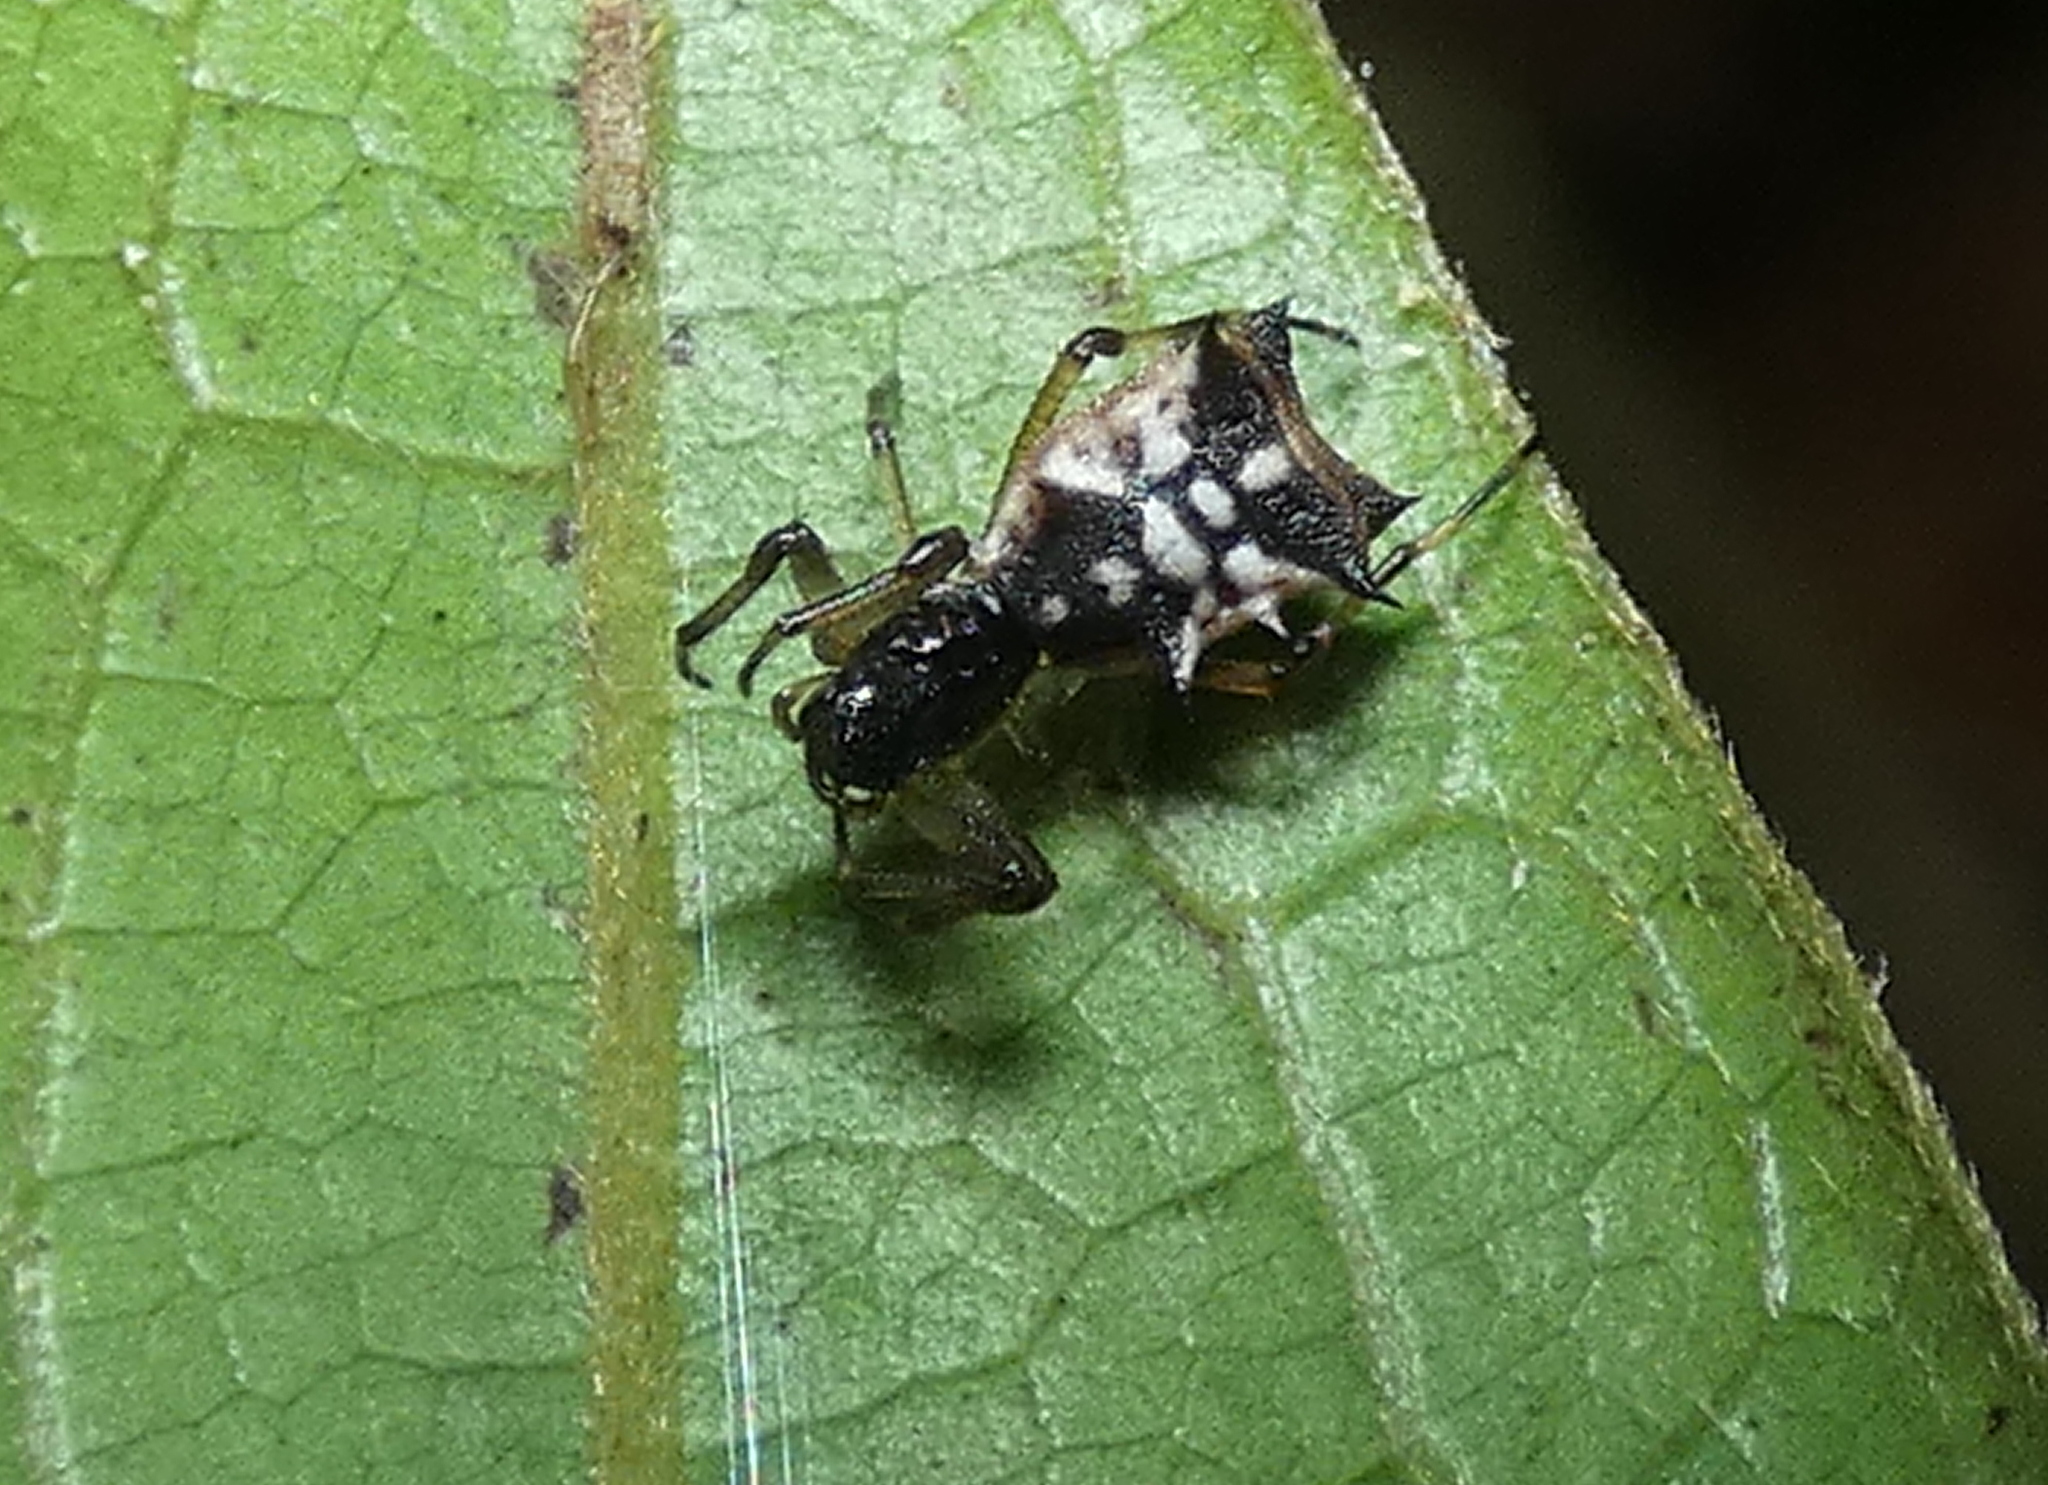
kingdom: Animalia
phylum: Arthropoda
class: Arachnida
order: Araneae
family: Araneidae
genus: Micrathena
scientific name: Micrathena picta
